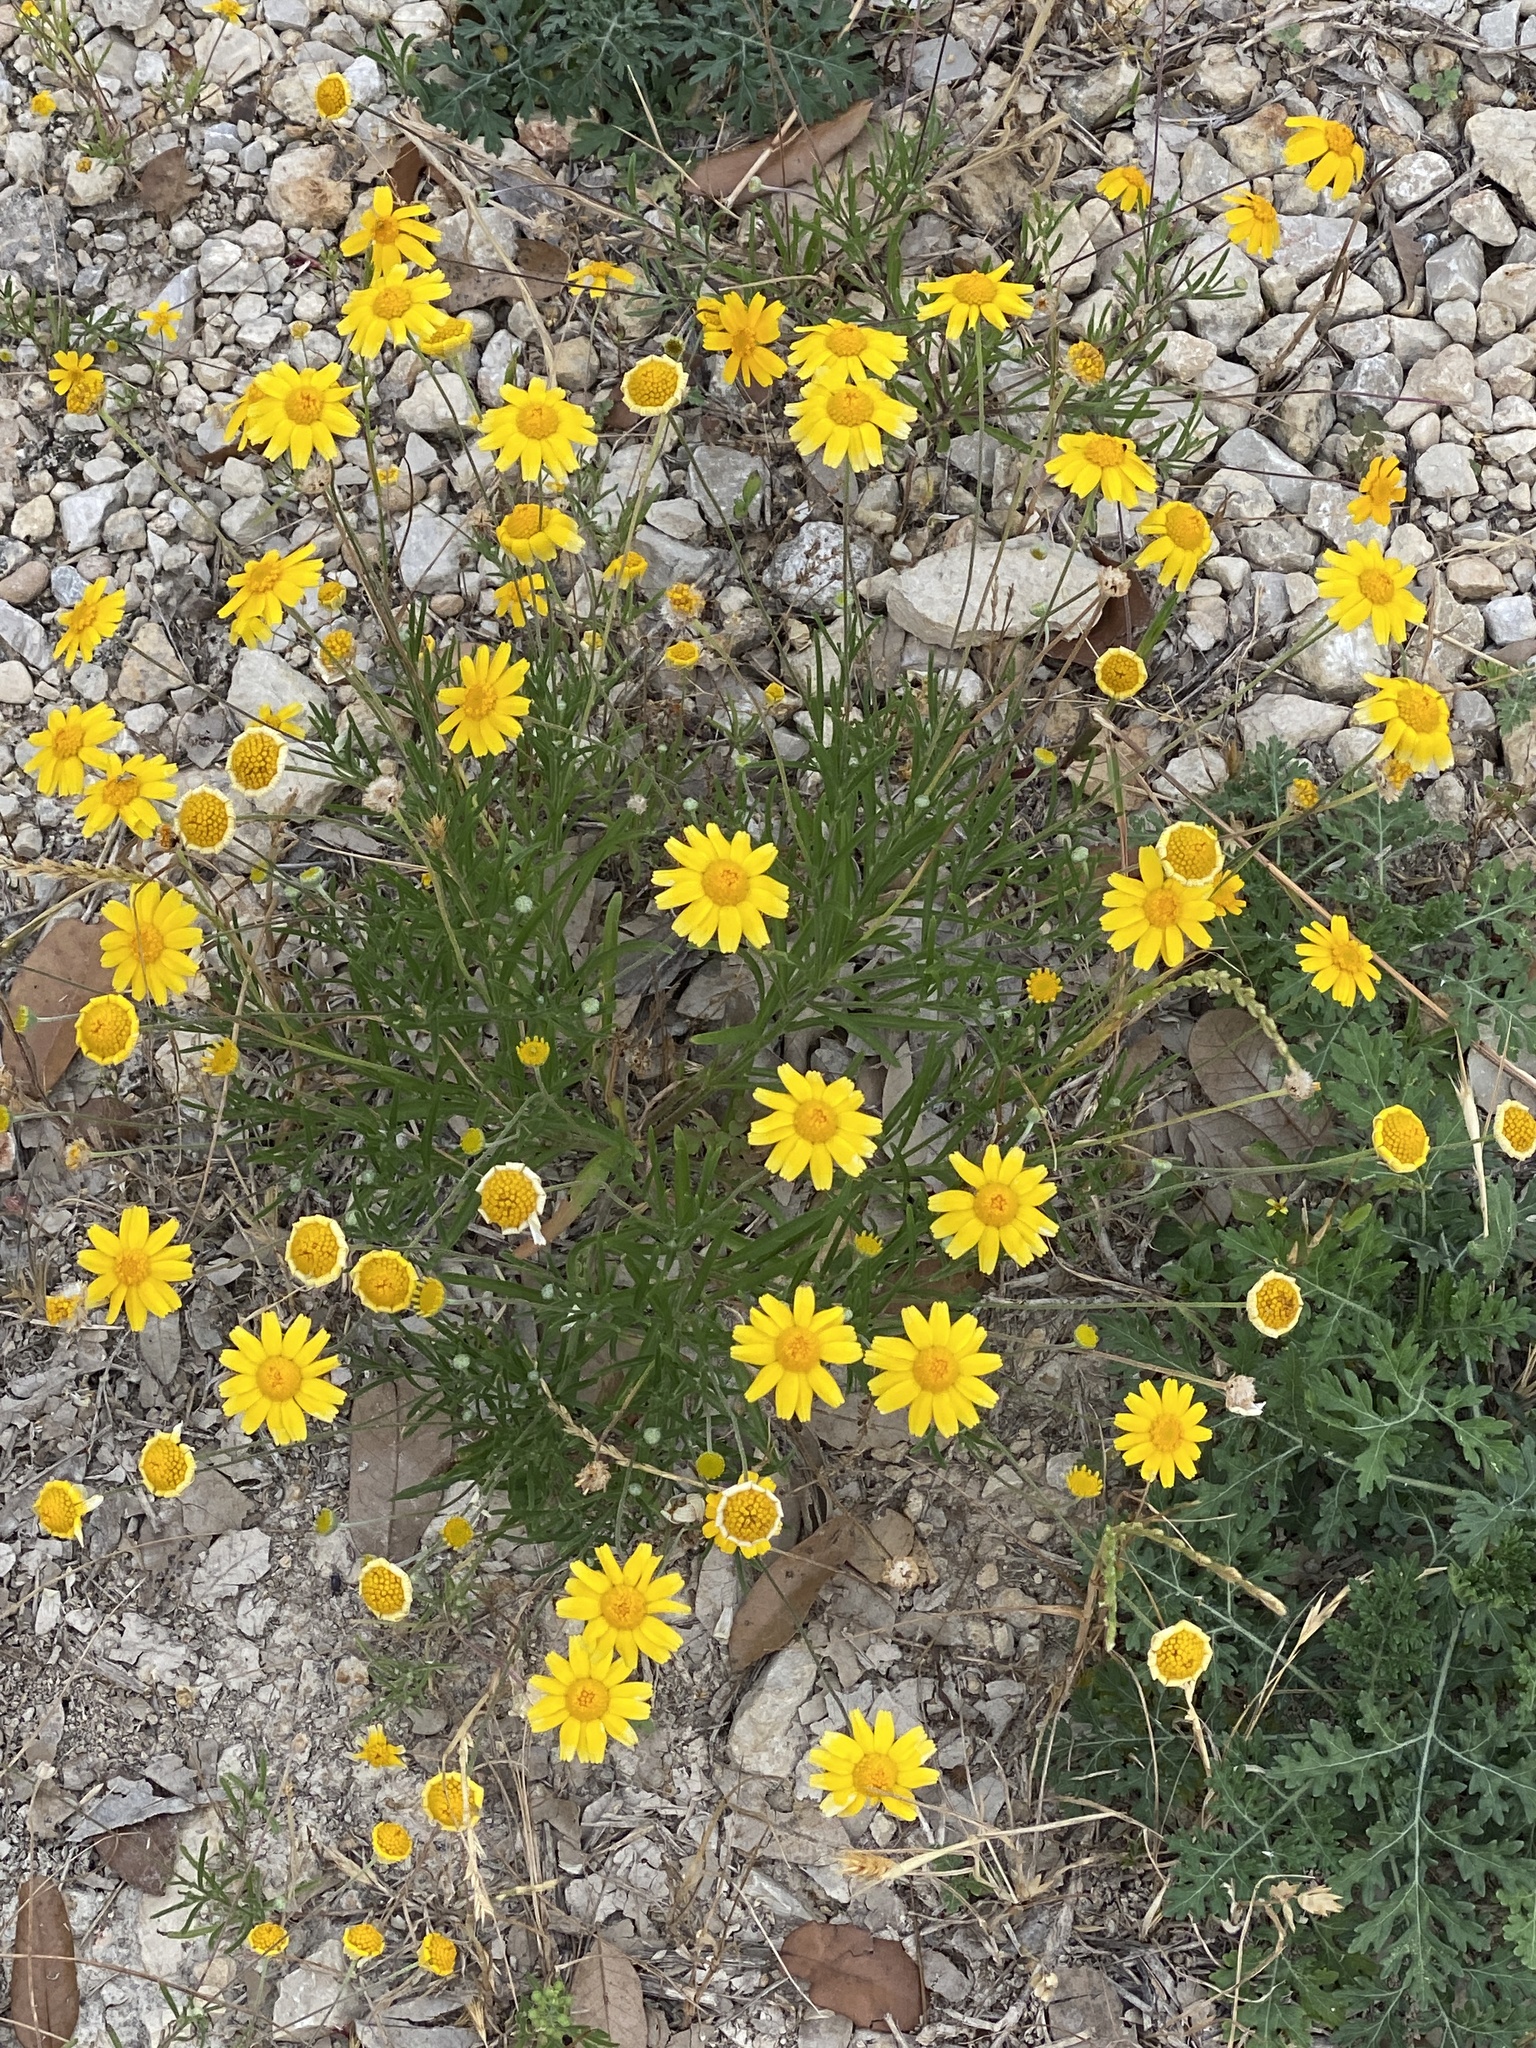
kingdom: Plantae
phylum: Tracheophyta
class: Magnoliopsida
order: Asterales
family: Asteraceae
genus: Tetraneuris
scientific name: Tetraneuris linearifolia
